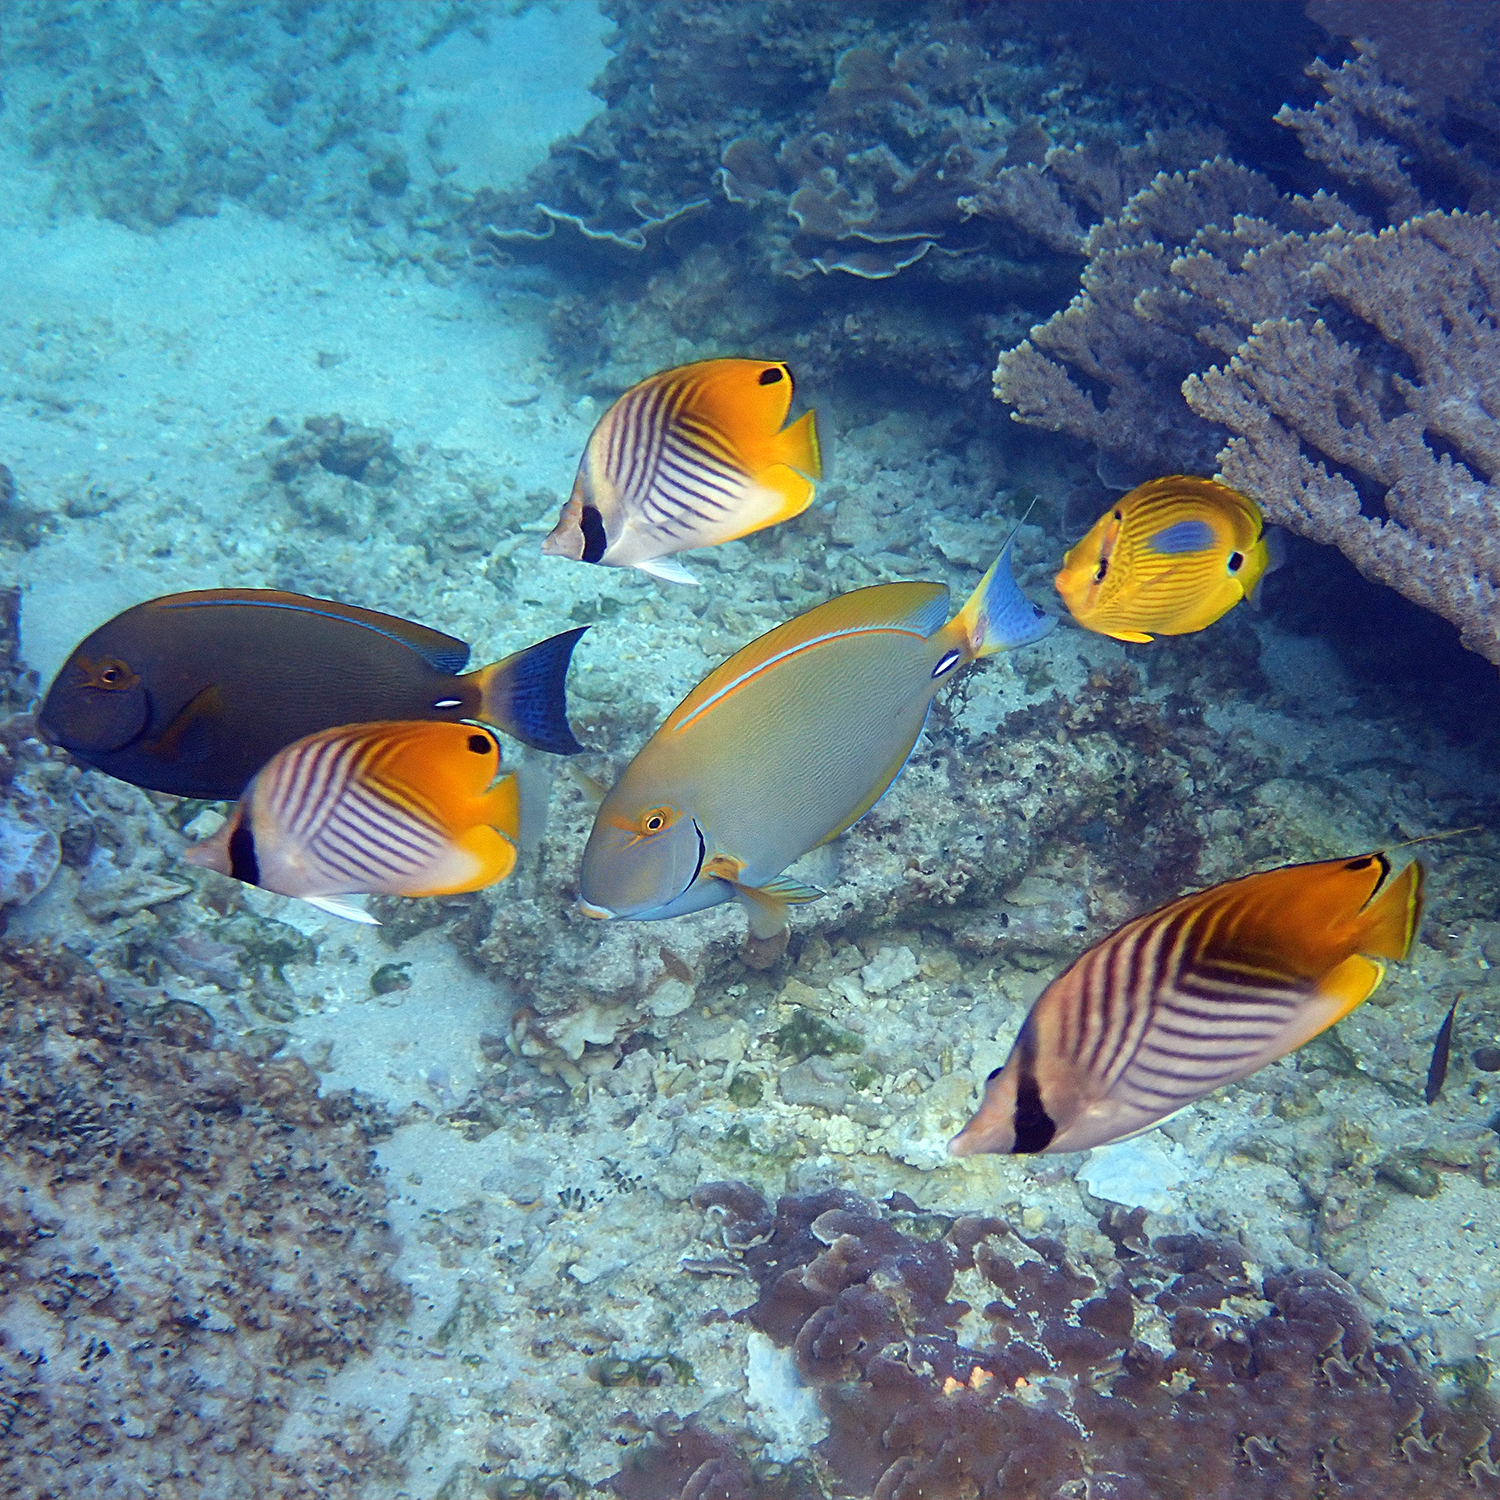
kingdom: Animalia
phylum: Chordata
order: Perciformes
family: Acanthuridae
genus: Acanthurus
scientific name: Acanthurus dussumieri
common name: Dussumier's surgeonfish
